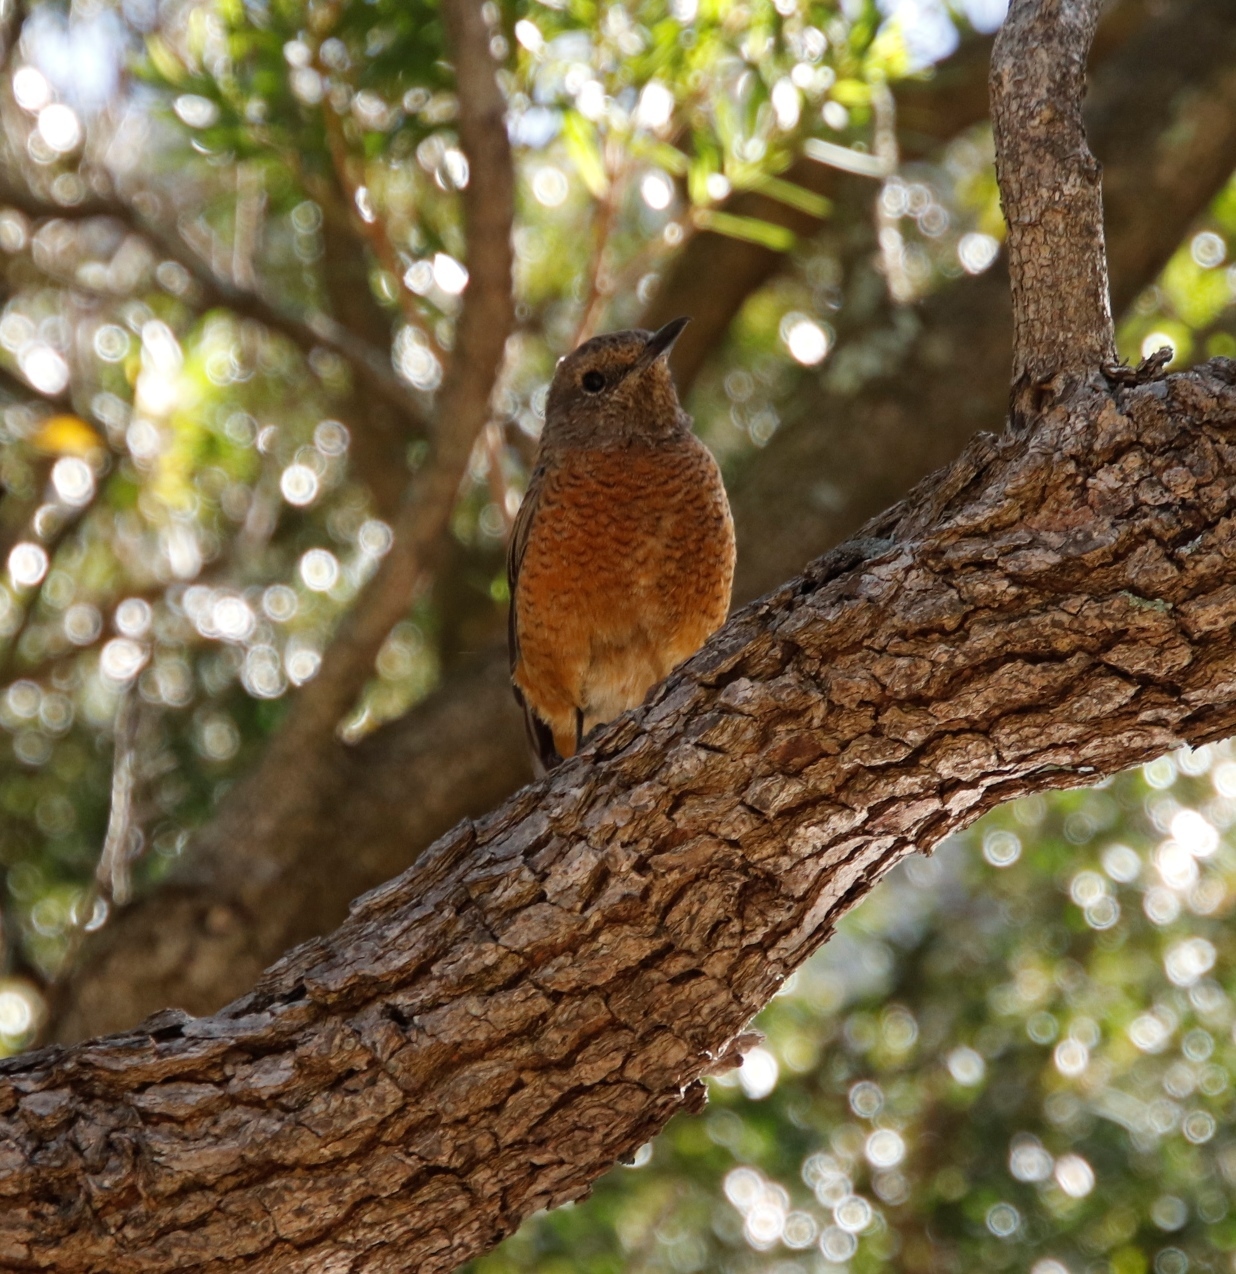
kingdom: Animalia
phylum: Chordata
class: Aves
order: Passeriformes
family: Muscicapidae
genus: Monticola
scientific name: Monticola rupestris
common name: Cape rock thrush
